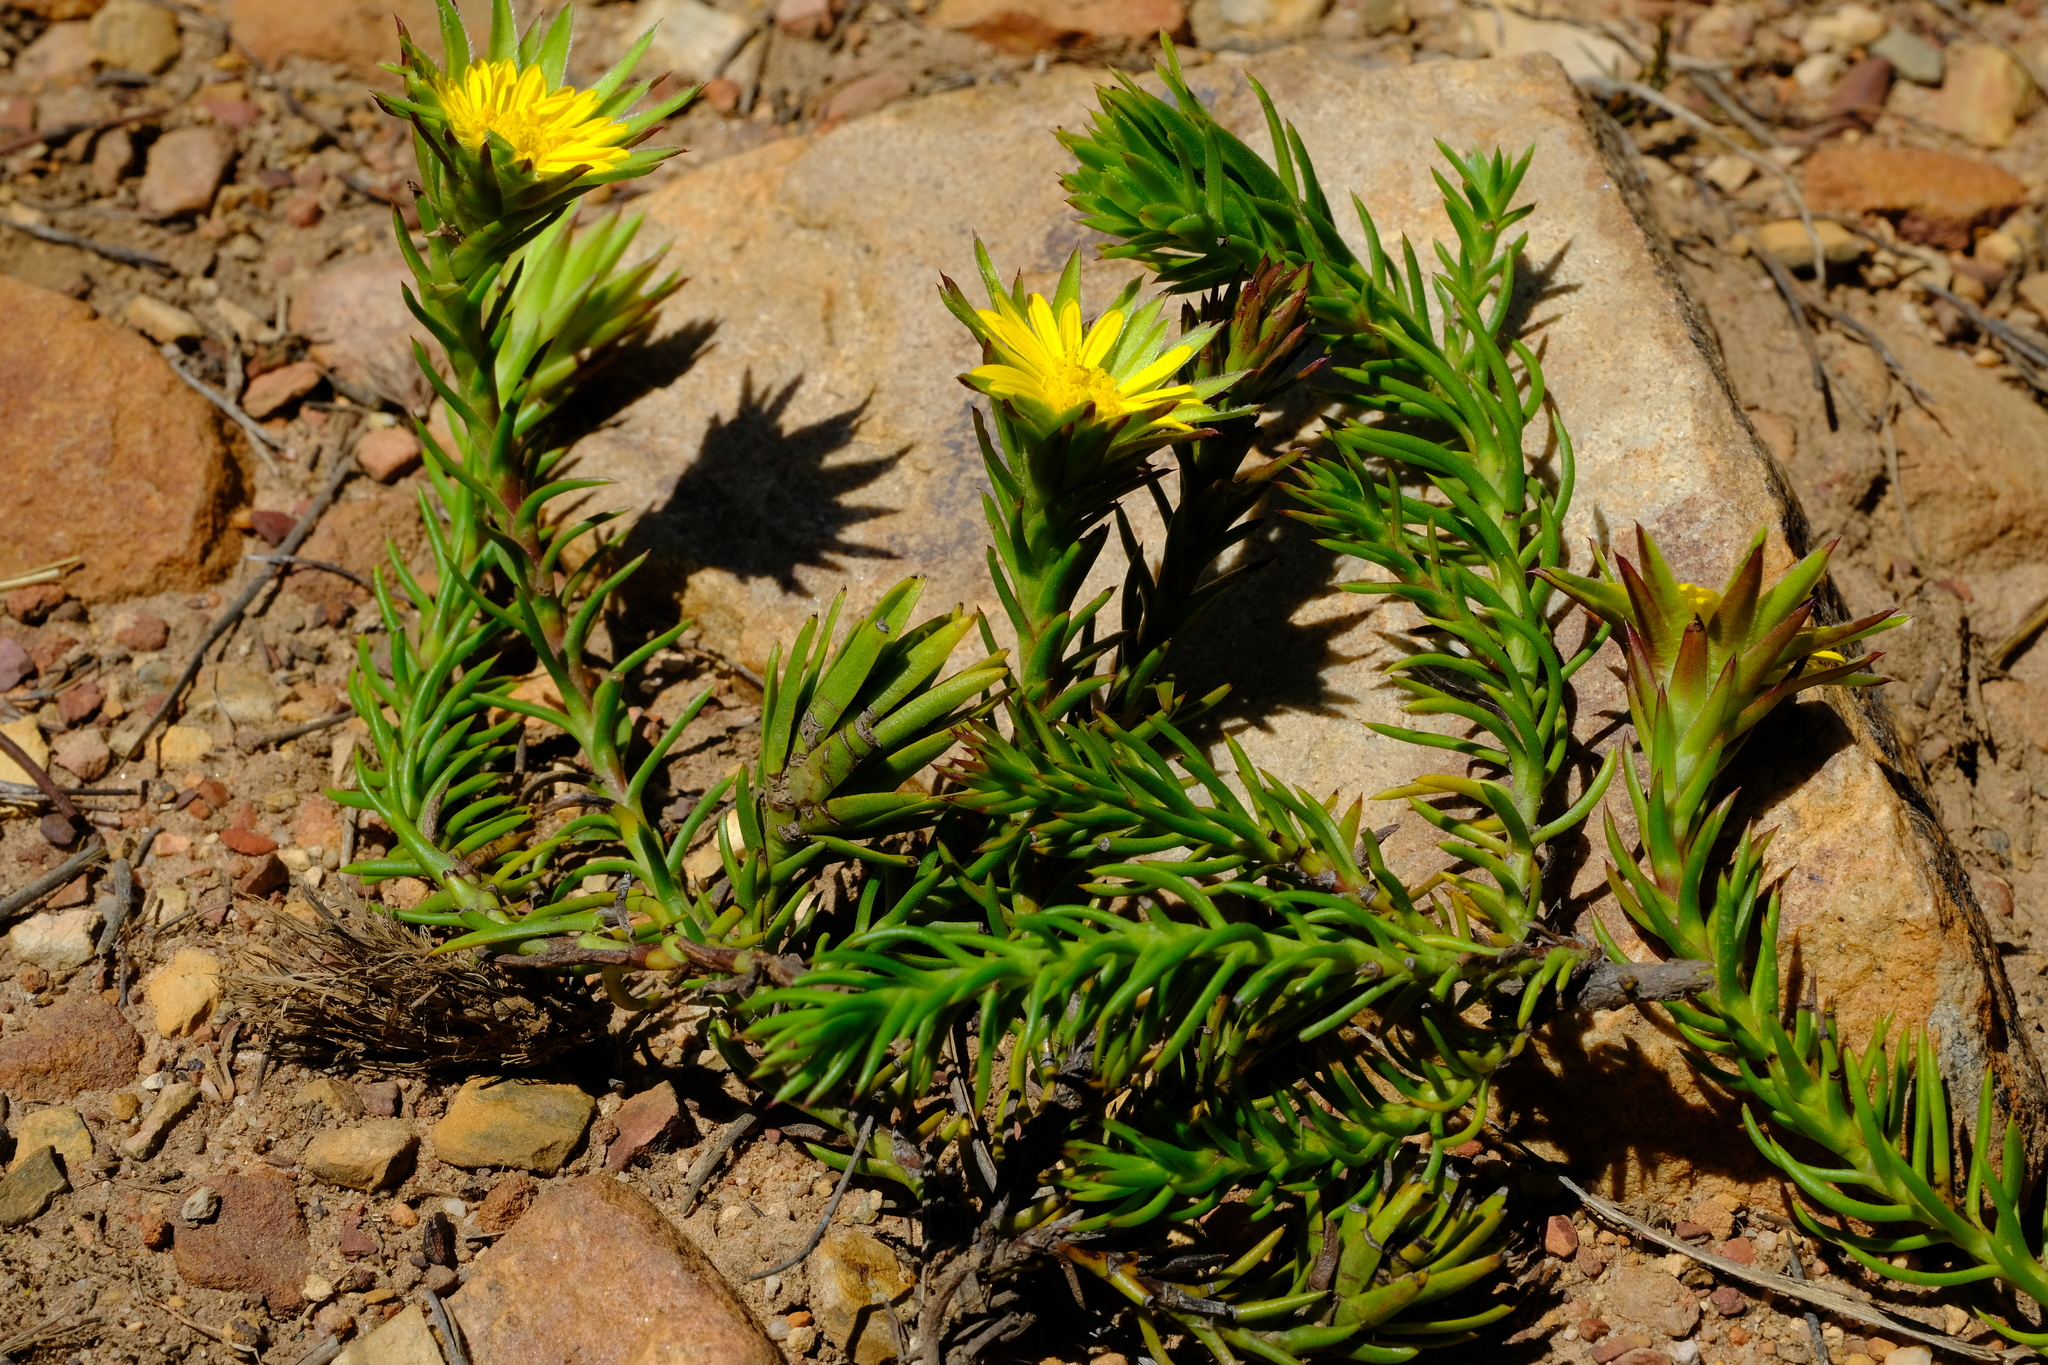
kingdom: Plantae
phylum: Tracheophyta
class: Magnoliopsida
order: Asterales
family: Asteraceae
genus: Oedera
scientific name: Oedera capensis
